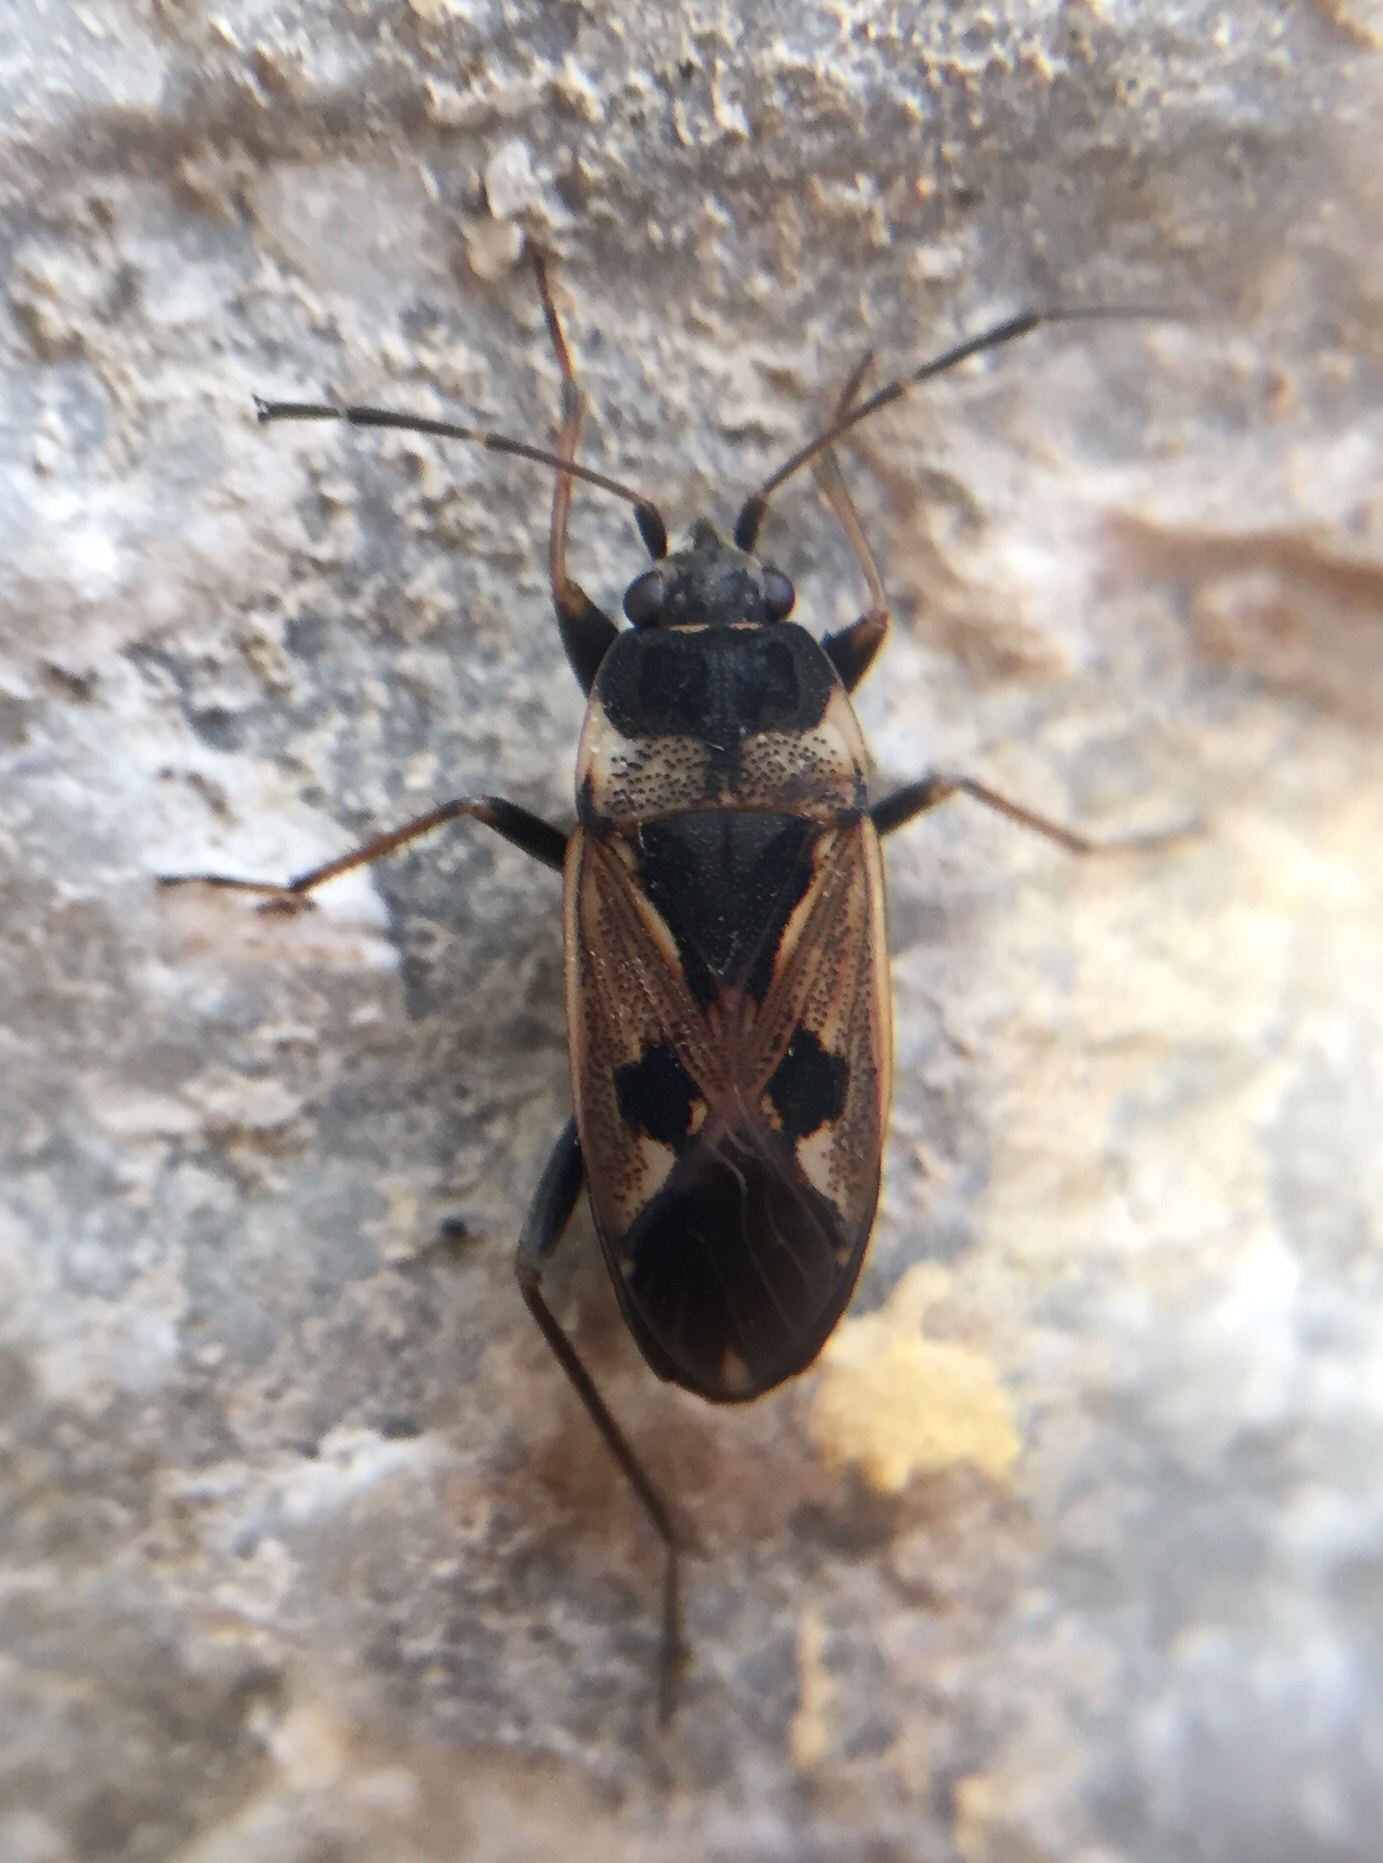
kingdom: Animalia
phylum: Arthropoda
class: Insecta
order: Hemiptera
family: Rhyparochromidae
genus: Rhyparochromus
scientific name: Rhyparochromus vulgaris
